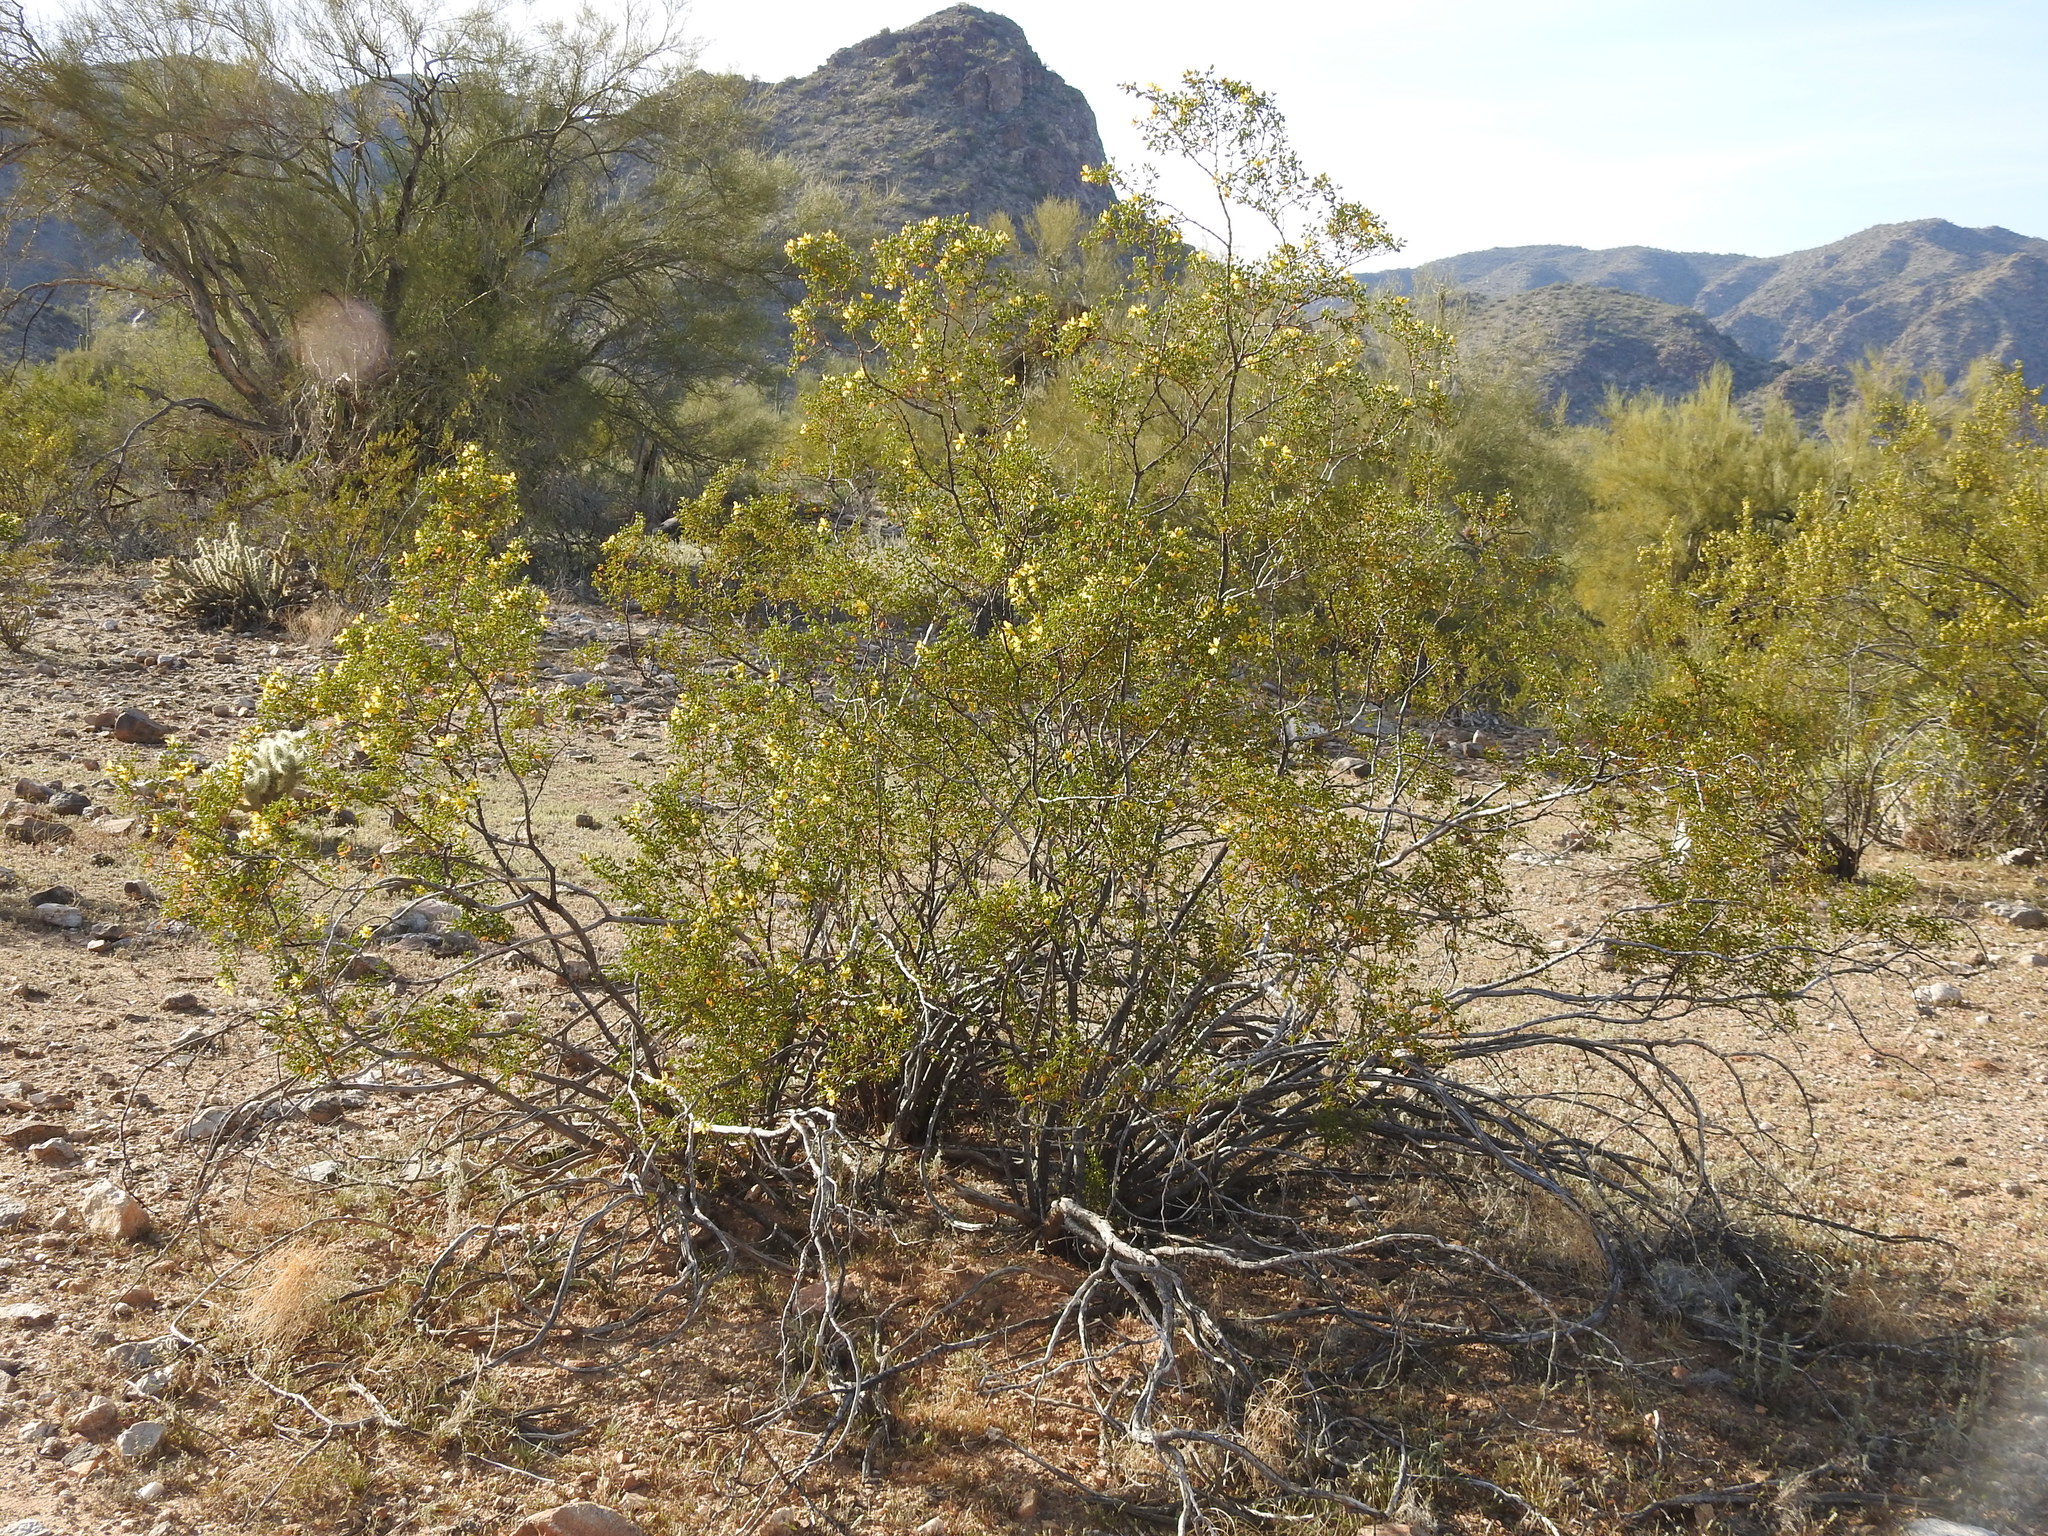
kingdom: Plantae
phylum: Tracheophyta
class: Magnoliopsida
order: Zygophyllales
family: Zygophyllaceae
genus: Larrea
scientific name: Larrea tridentata
